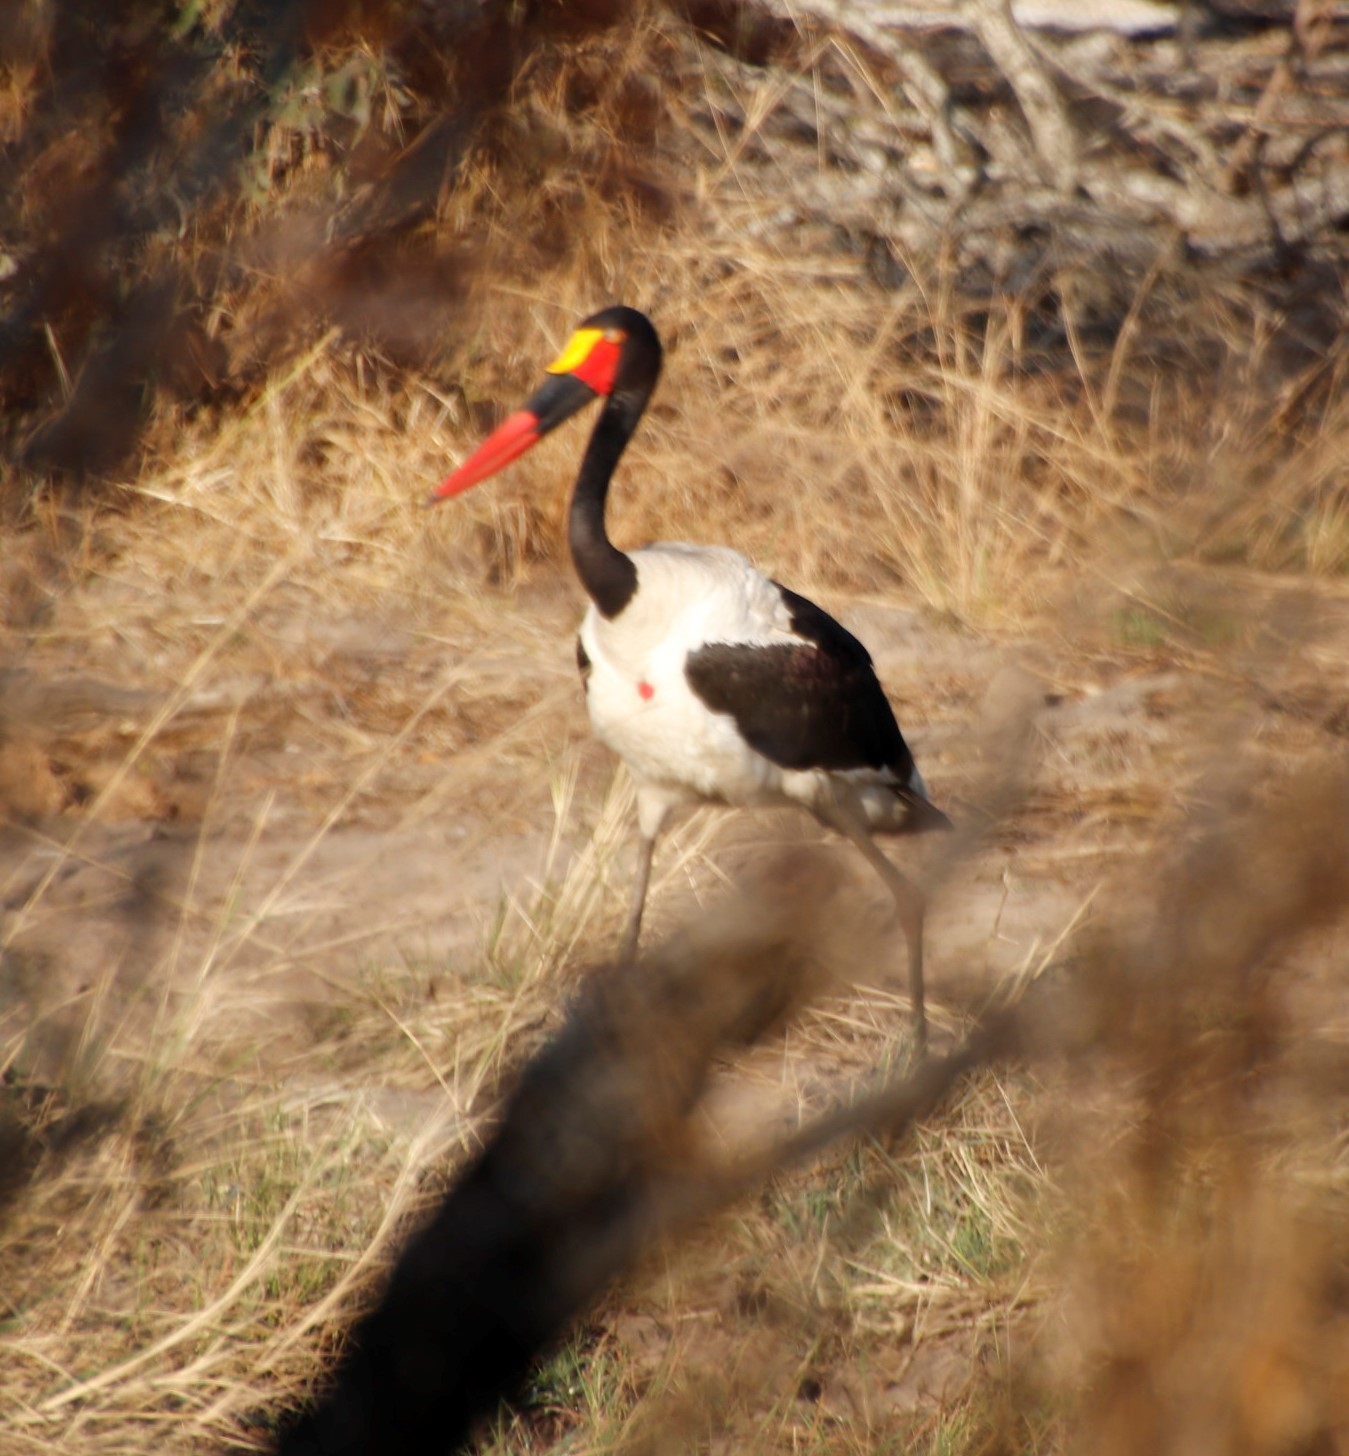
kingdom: Animalia
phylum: Chordata
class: Aves
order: Ciconiiformes
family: Ciconiidae
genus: Ephippiorhynchus
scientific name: Ephippiorhynchus senegalensis
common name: Saddle-billed stork
